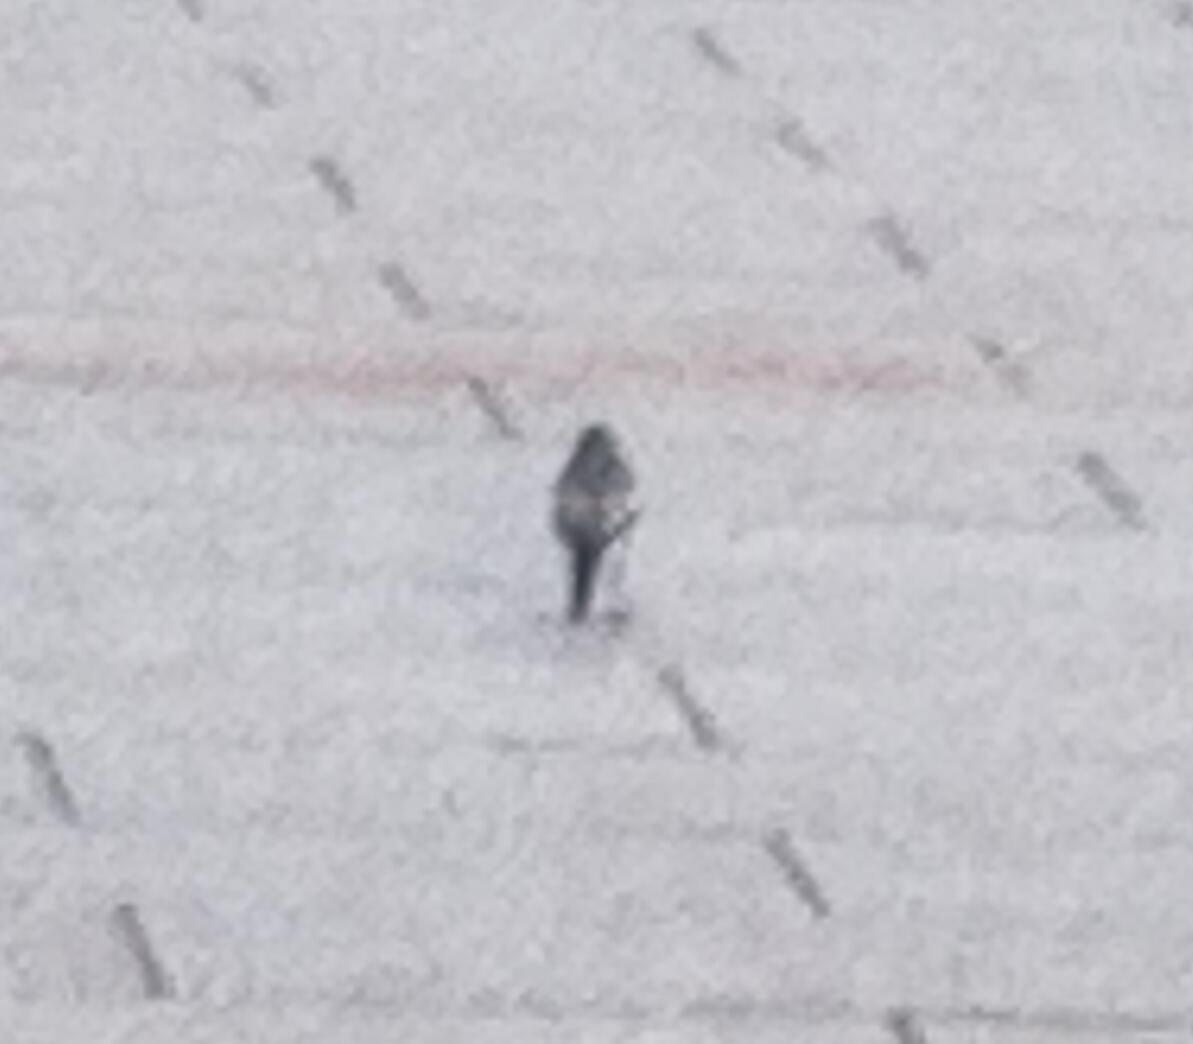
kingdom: Animalia
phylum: Chordata
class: Aves
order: Passeriformes
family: Motacillidae
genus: Motacilla
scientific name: Motacilla alba
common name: White wagtail
